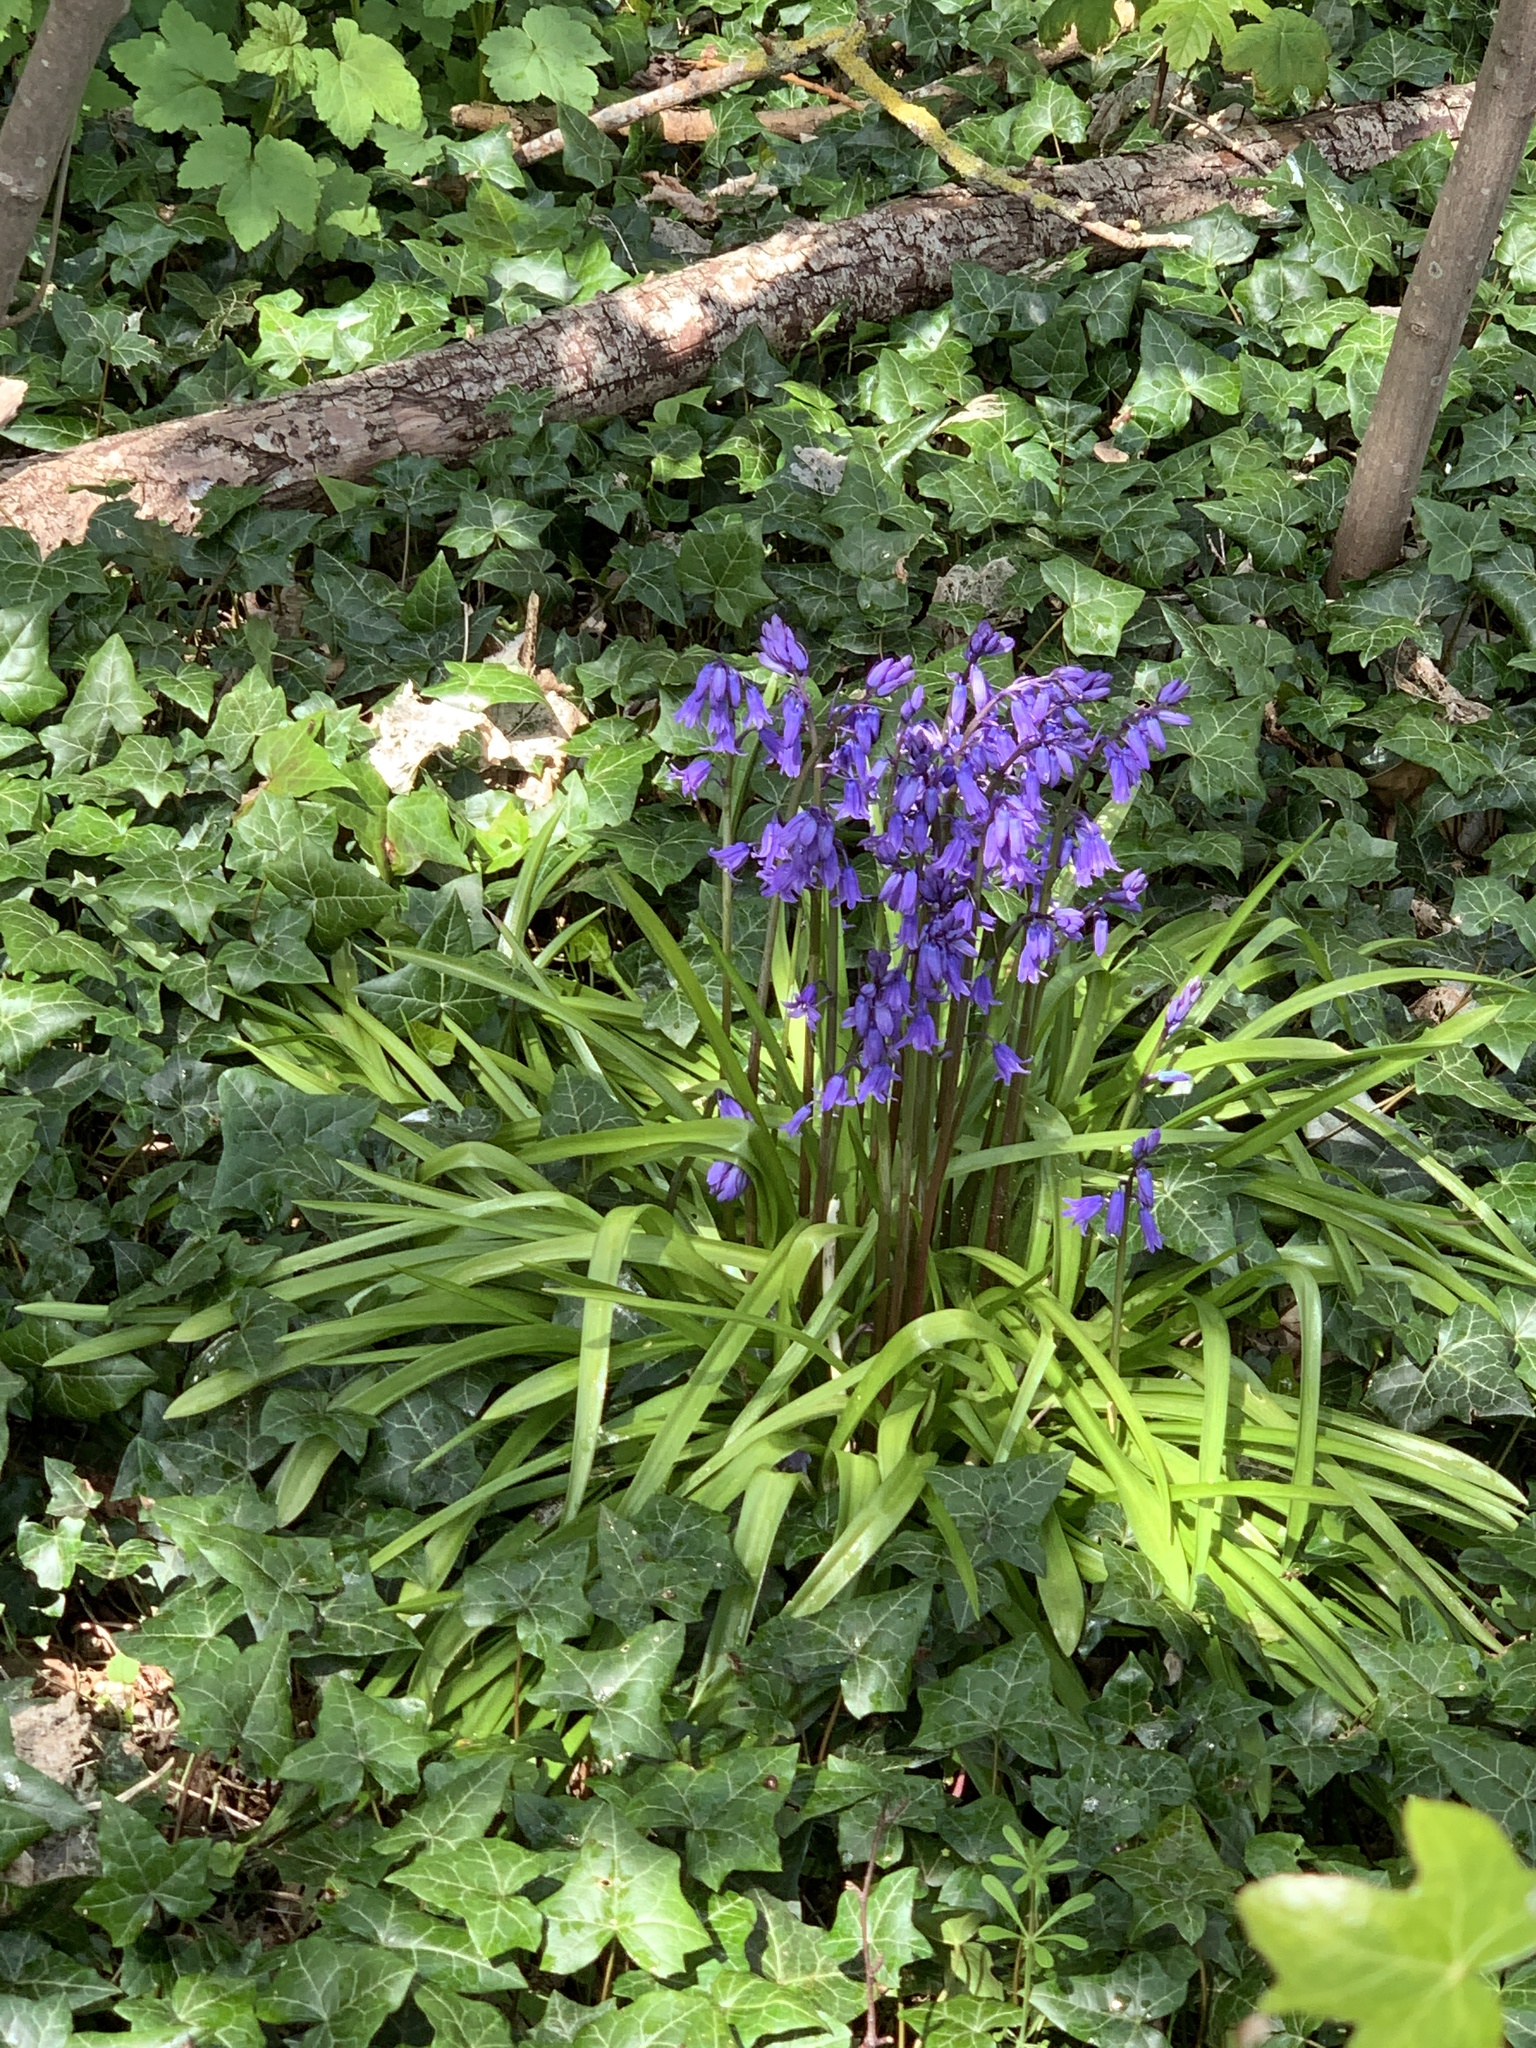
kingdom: Plantae
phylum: Tracheophyta
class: Liliopsida
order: Asparagales
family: Asparagaceae
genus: Hyacinthoides
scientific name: Hyacinthoides massartiana
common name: Hyacinthoides
